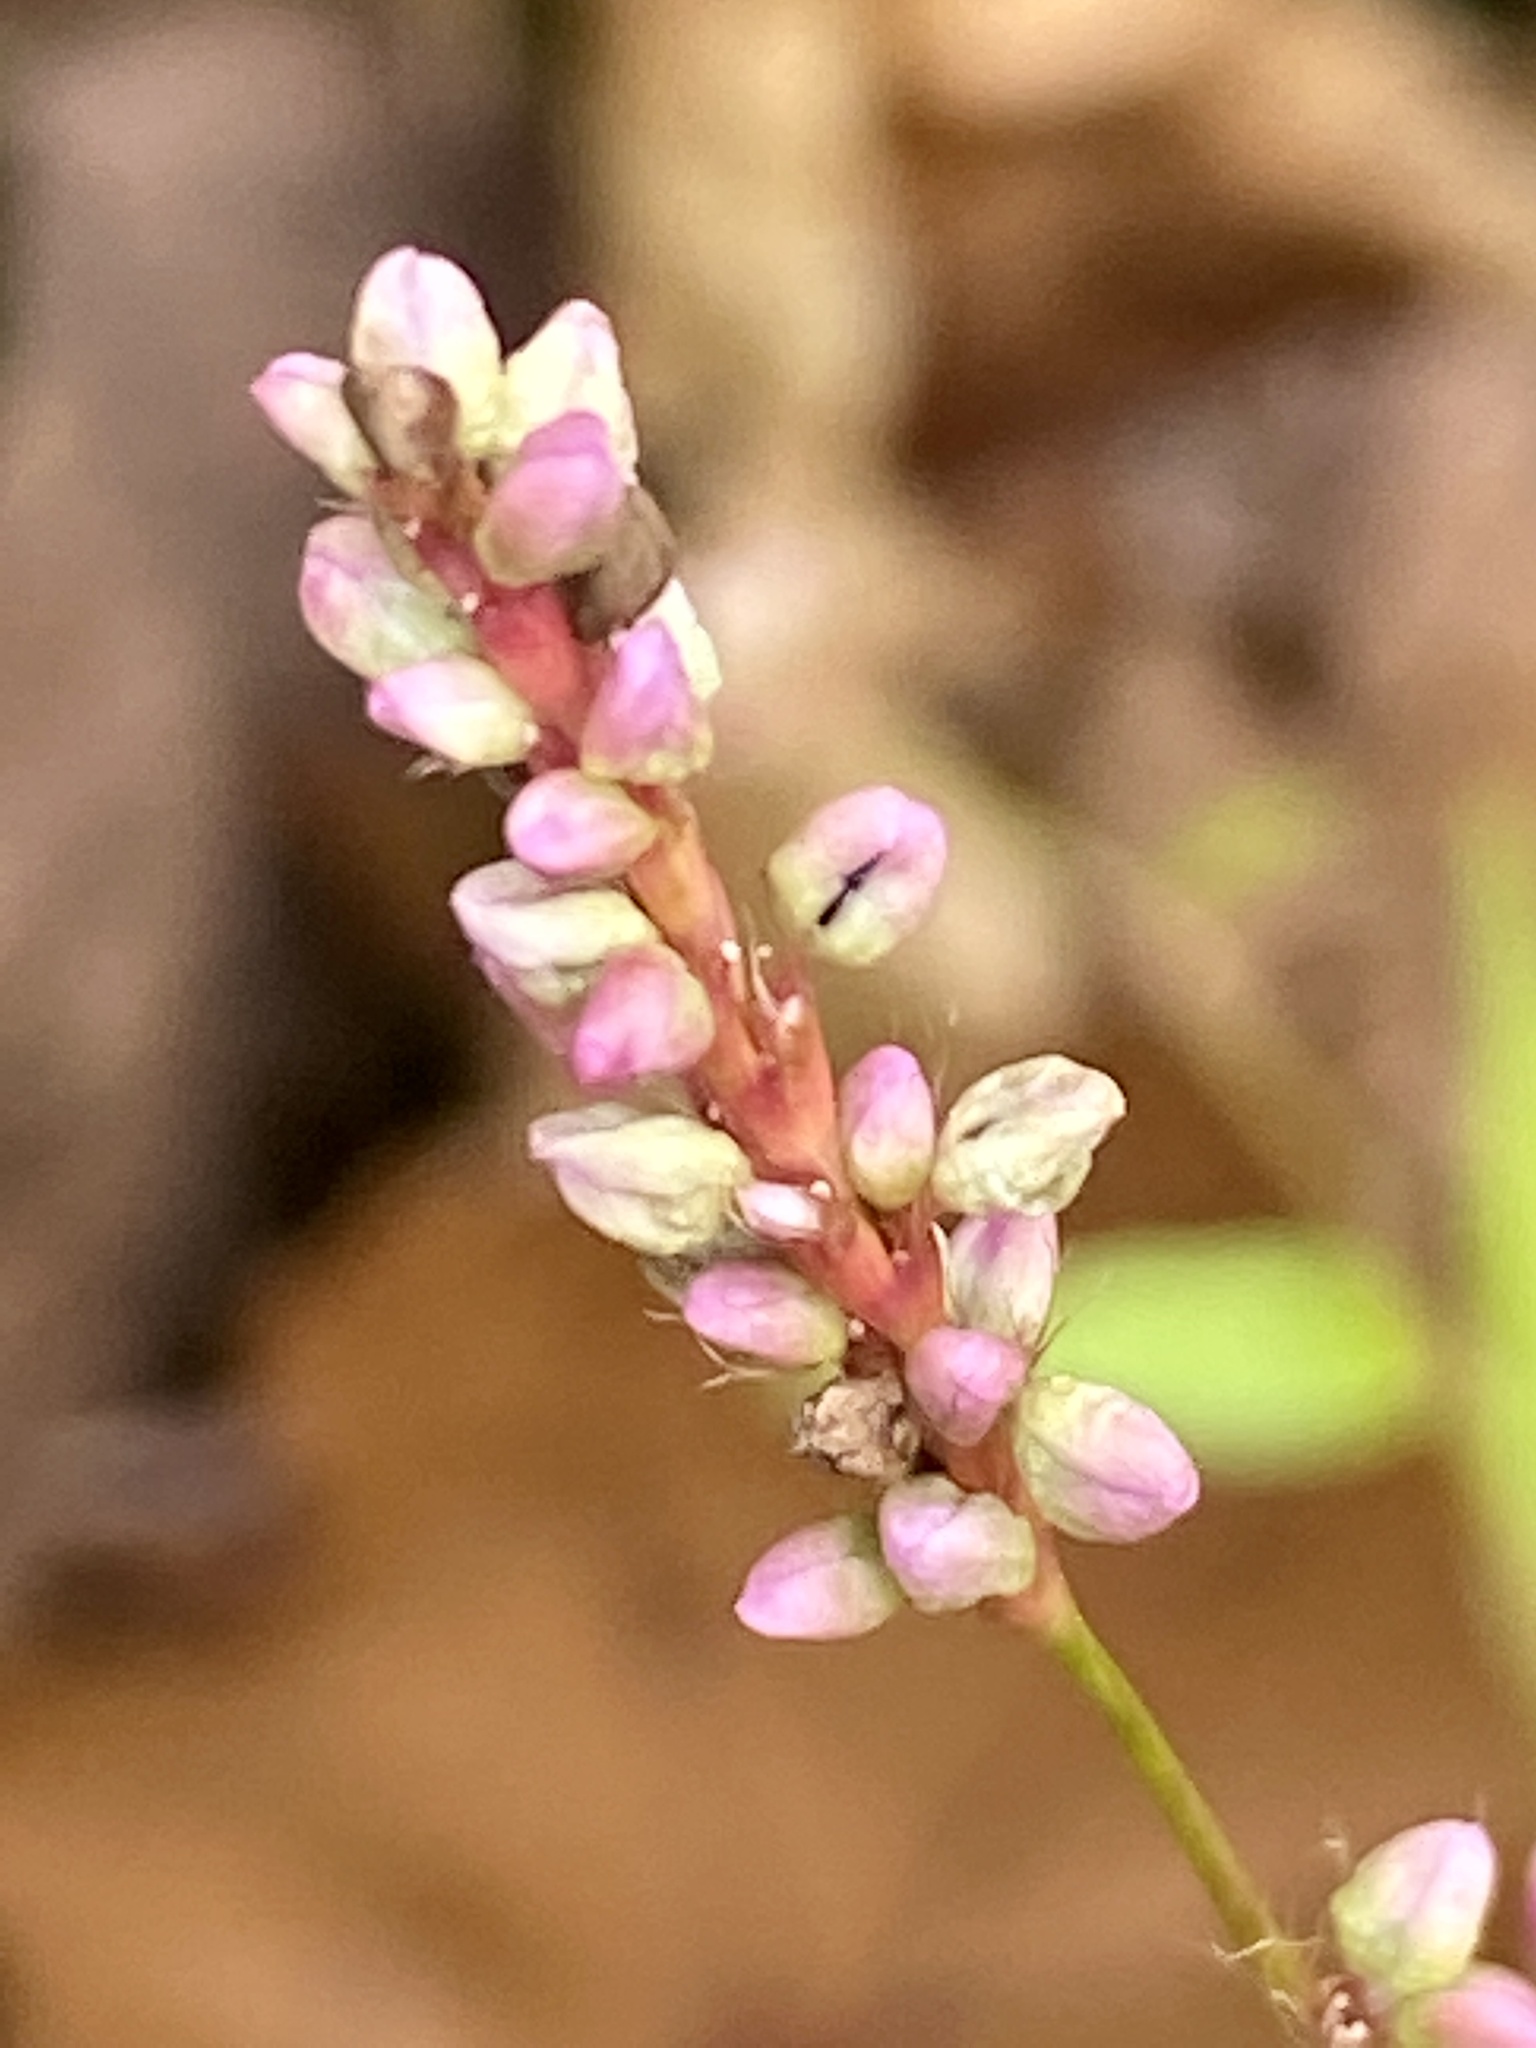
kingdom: Plantae
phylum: Tracheophyta
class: Magnoliopsida
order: Caryophyllales
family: Polygonaceae
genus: Persicaria
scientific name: Persicaria longiseta
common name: Bristly lady's-thumb
